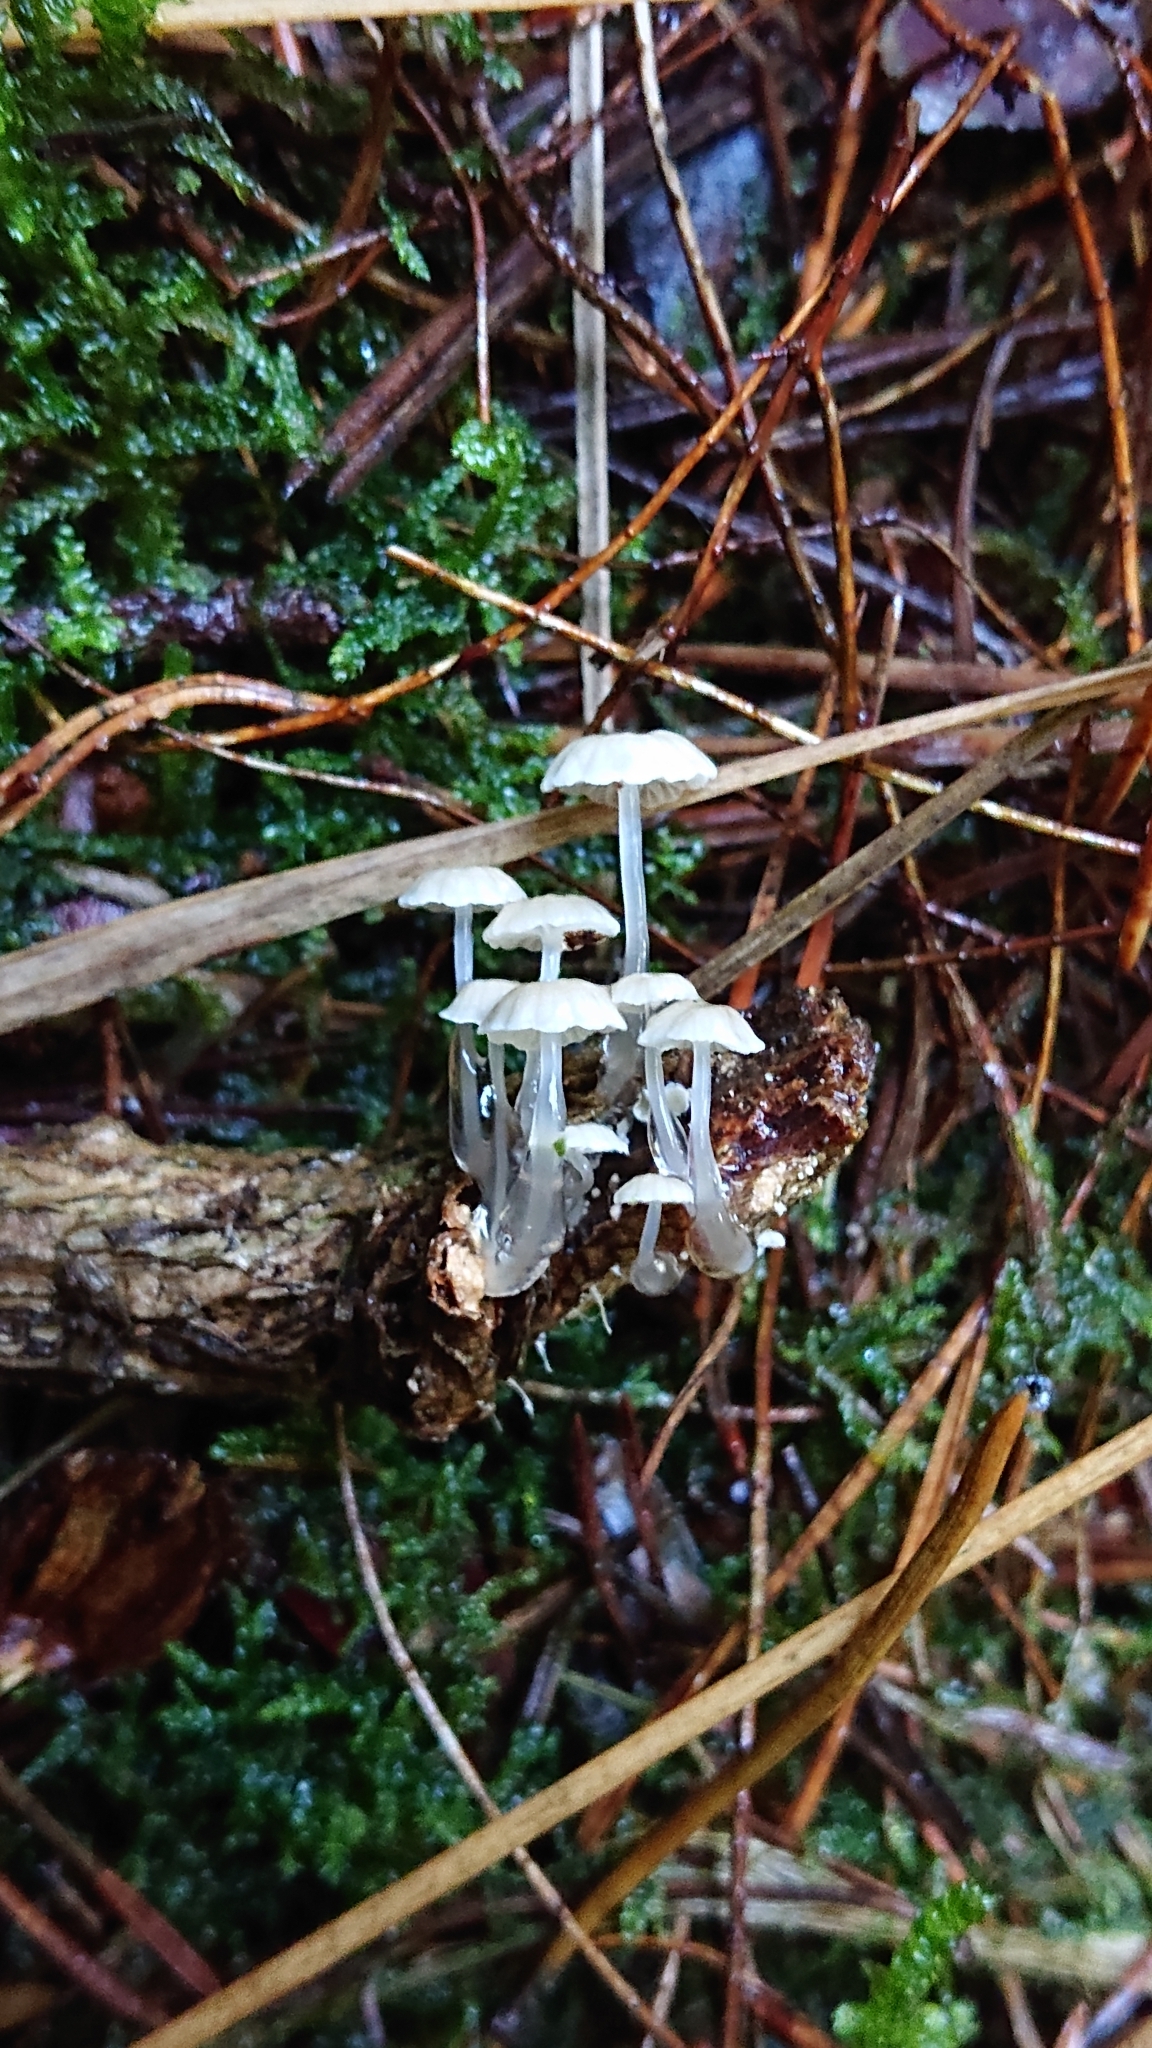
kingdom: Fungi
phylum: Basidiomycota
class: Agaricomycetes
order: Agaricales
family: Mycenaceae
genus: Roridomyces
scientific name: Roridomyces roridus
